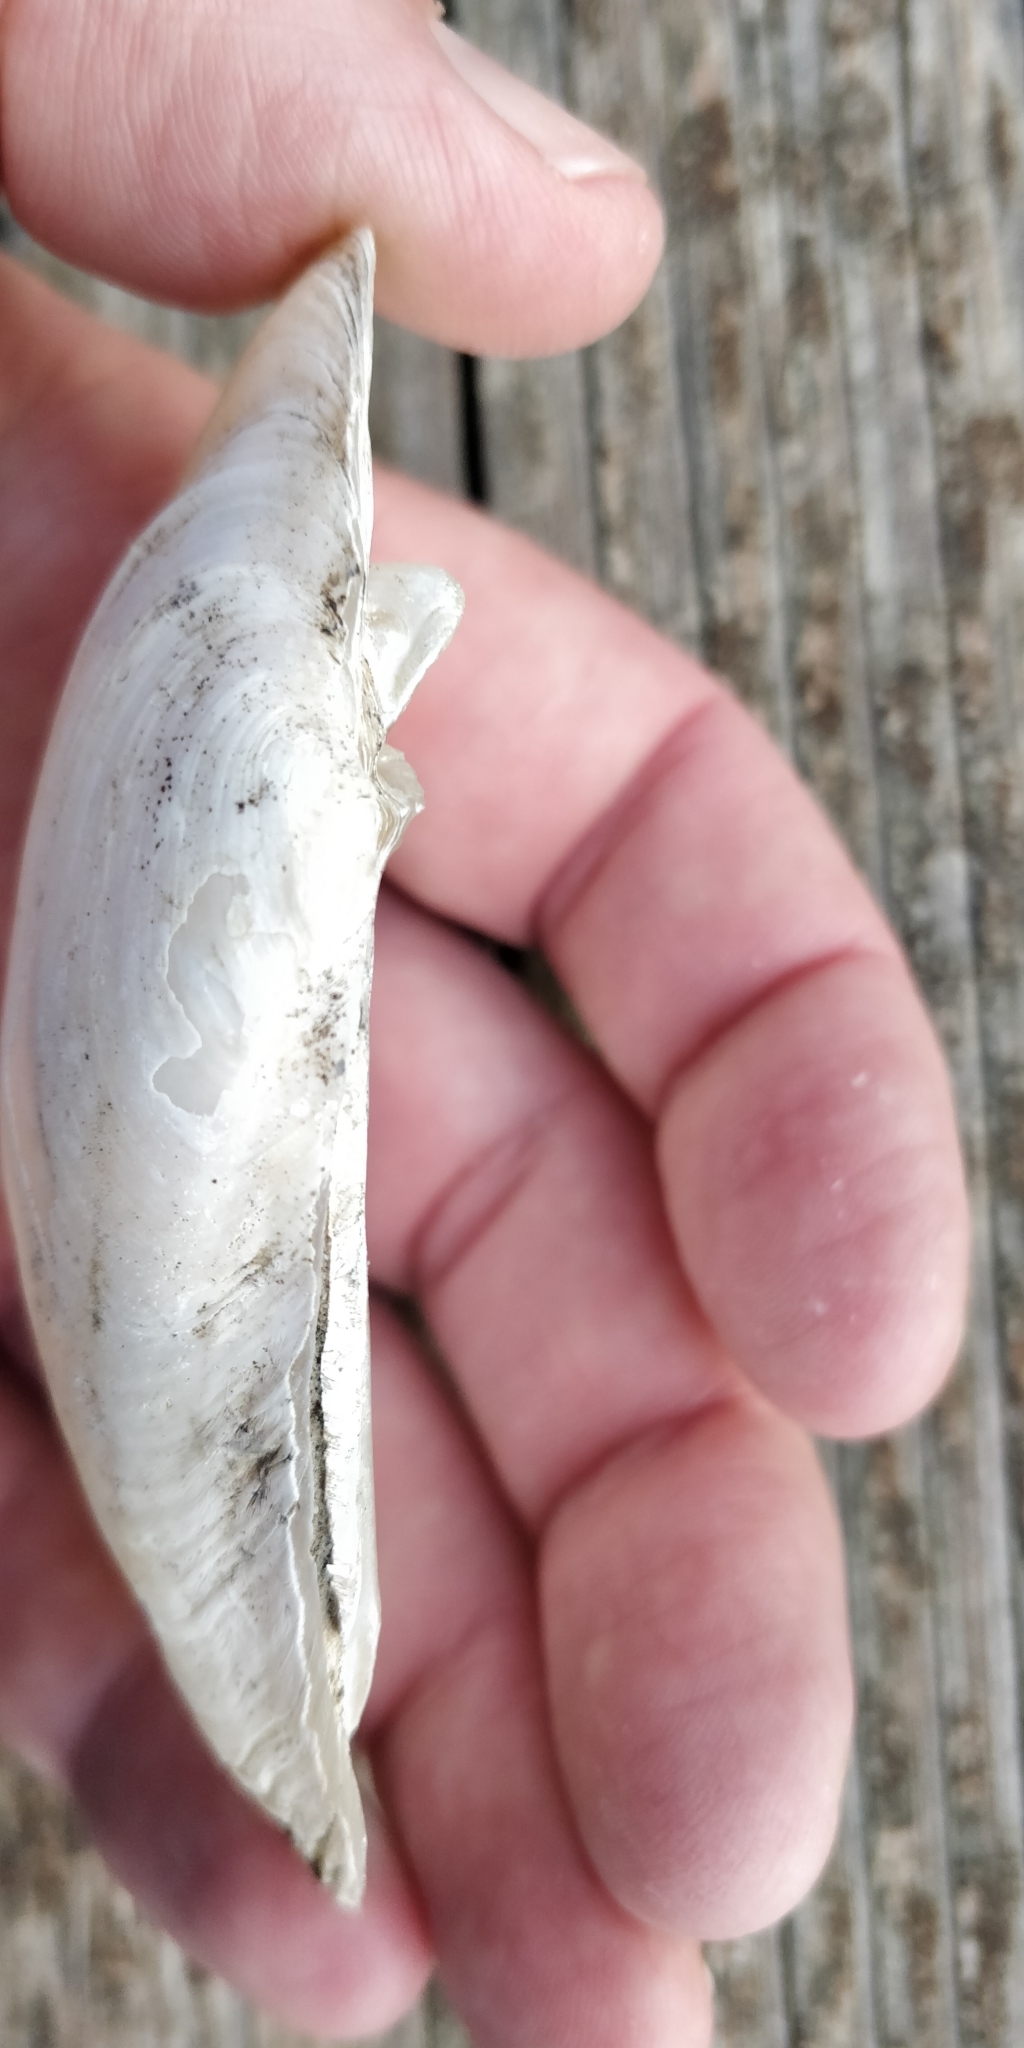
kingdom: Animalia
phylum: Mollusca
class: Bivalvia
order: Unionida
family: Unionidae
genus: Lampsilis
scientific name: Lampsilis siliquoidea
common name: Fatmucket
